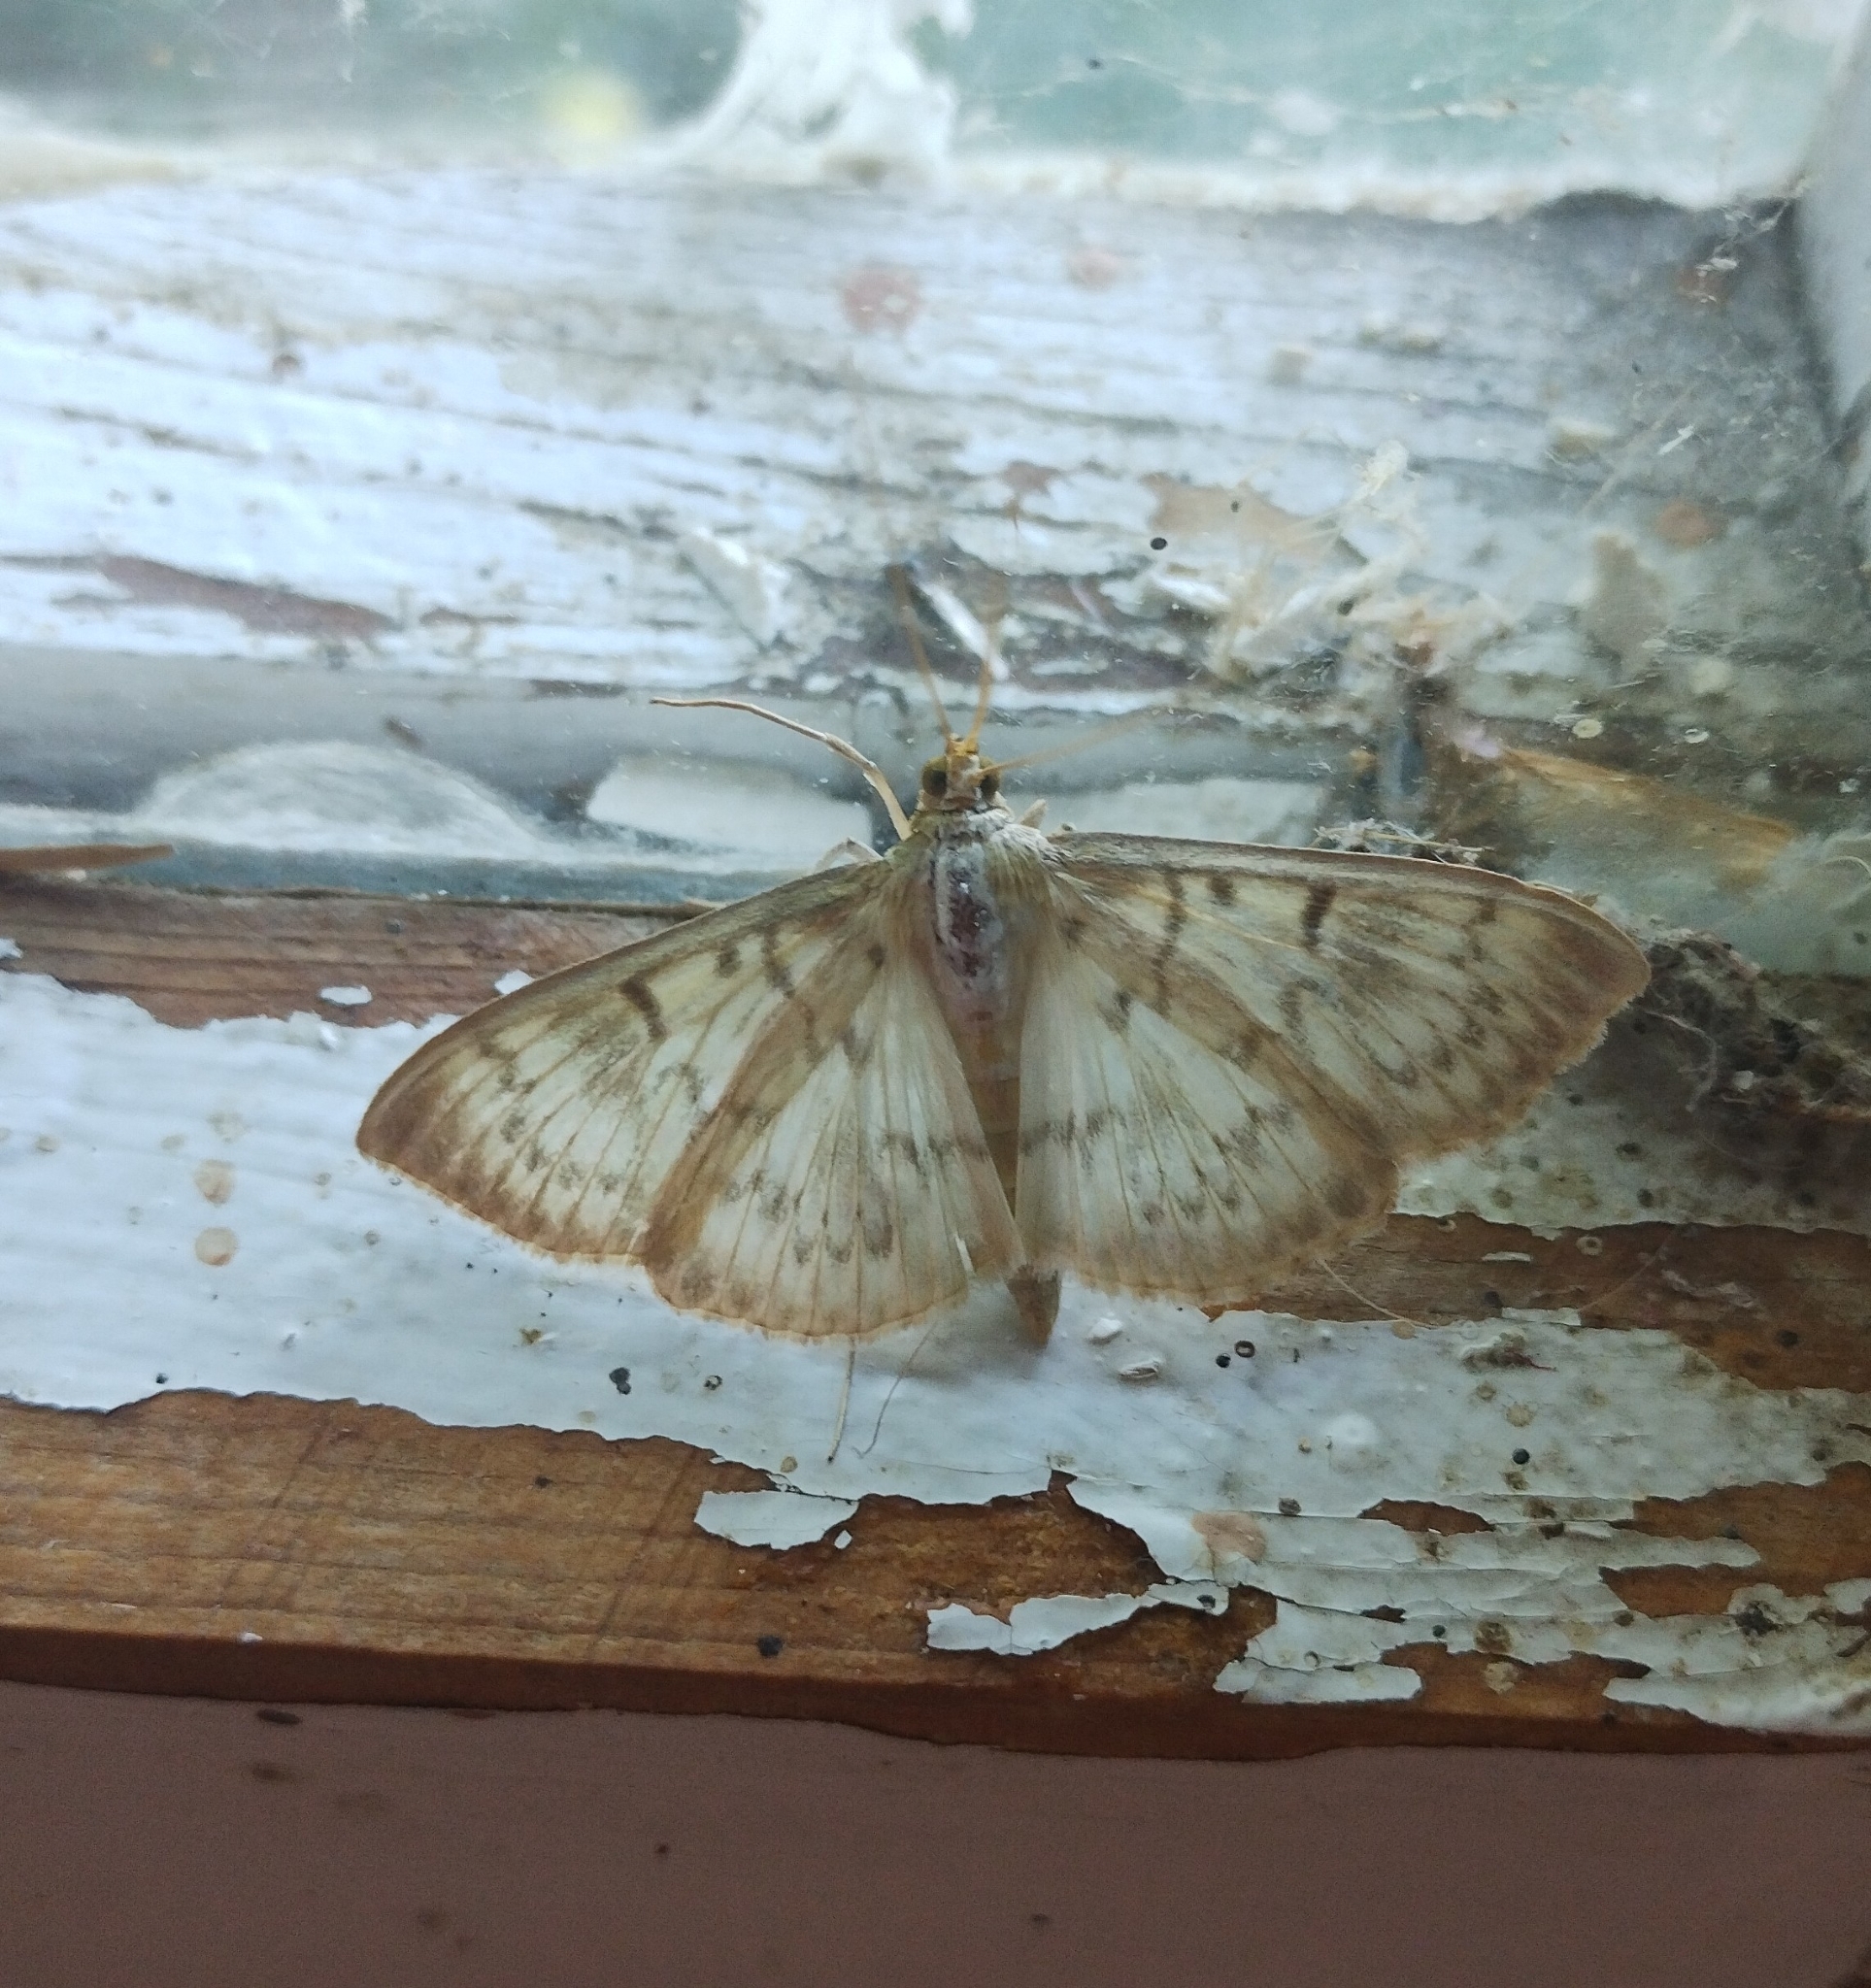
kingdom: Animalia
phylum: Arthropoda
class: Insecta
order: Lepidoptera
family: Crambidae
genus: Patania
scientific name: Patania ruralis
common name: Mother of pearl
